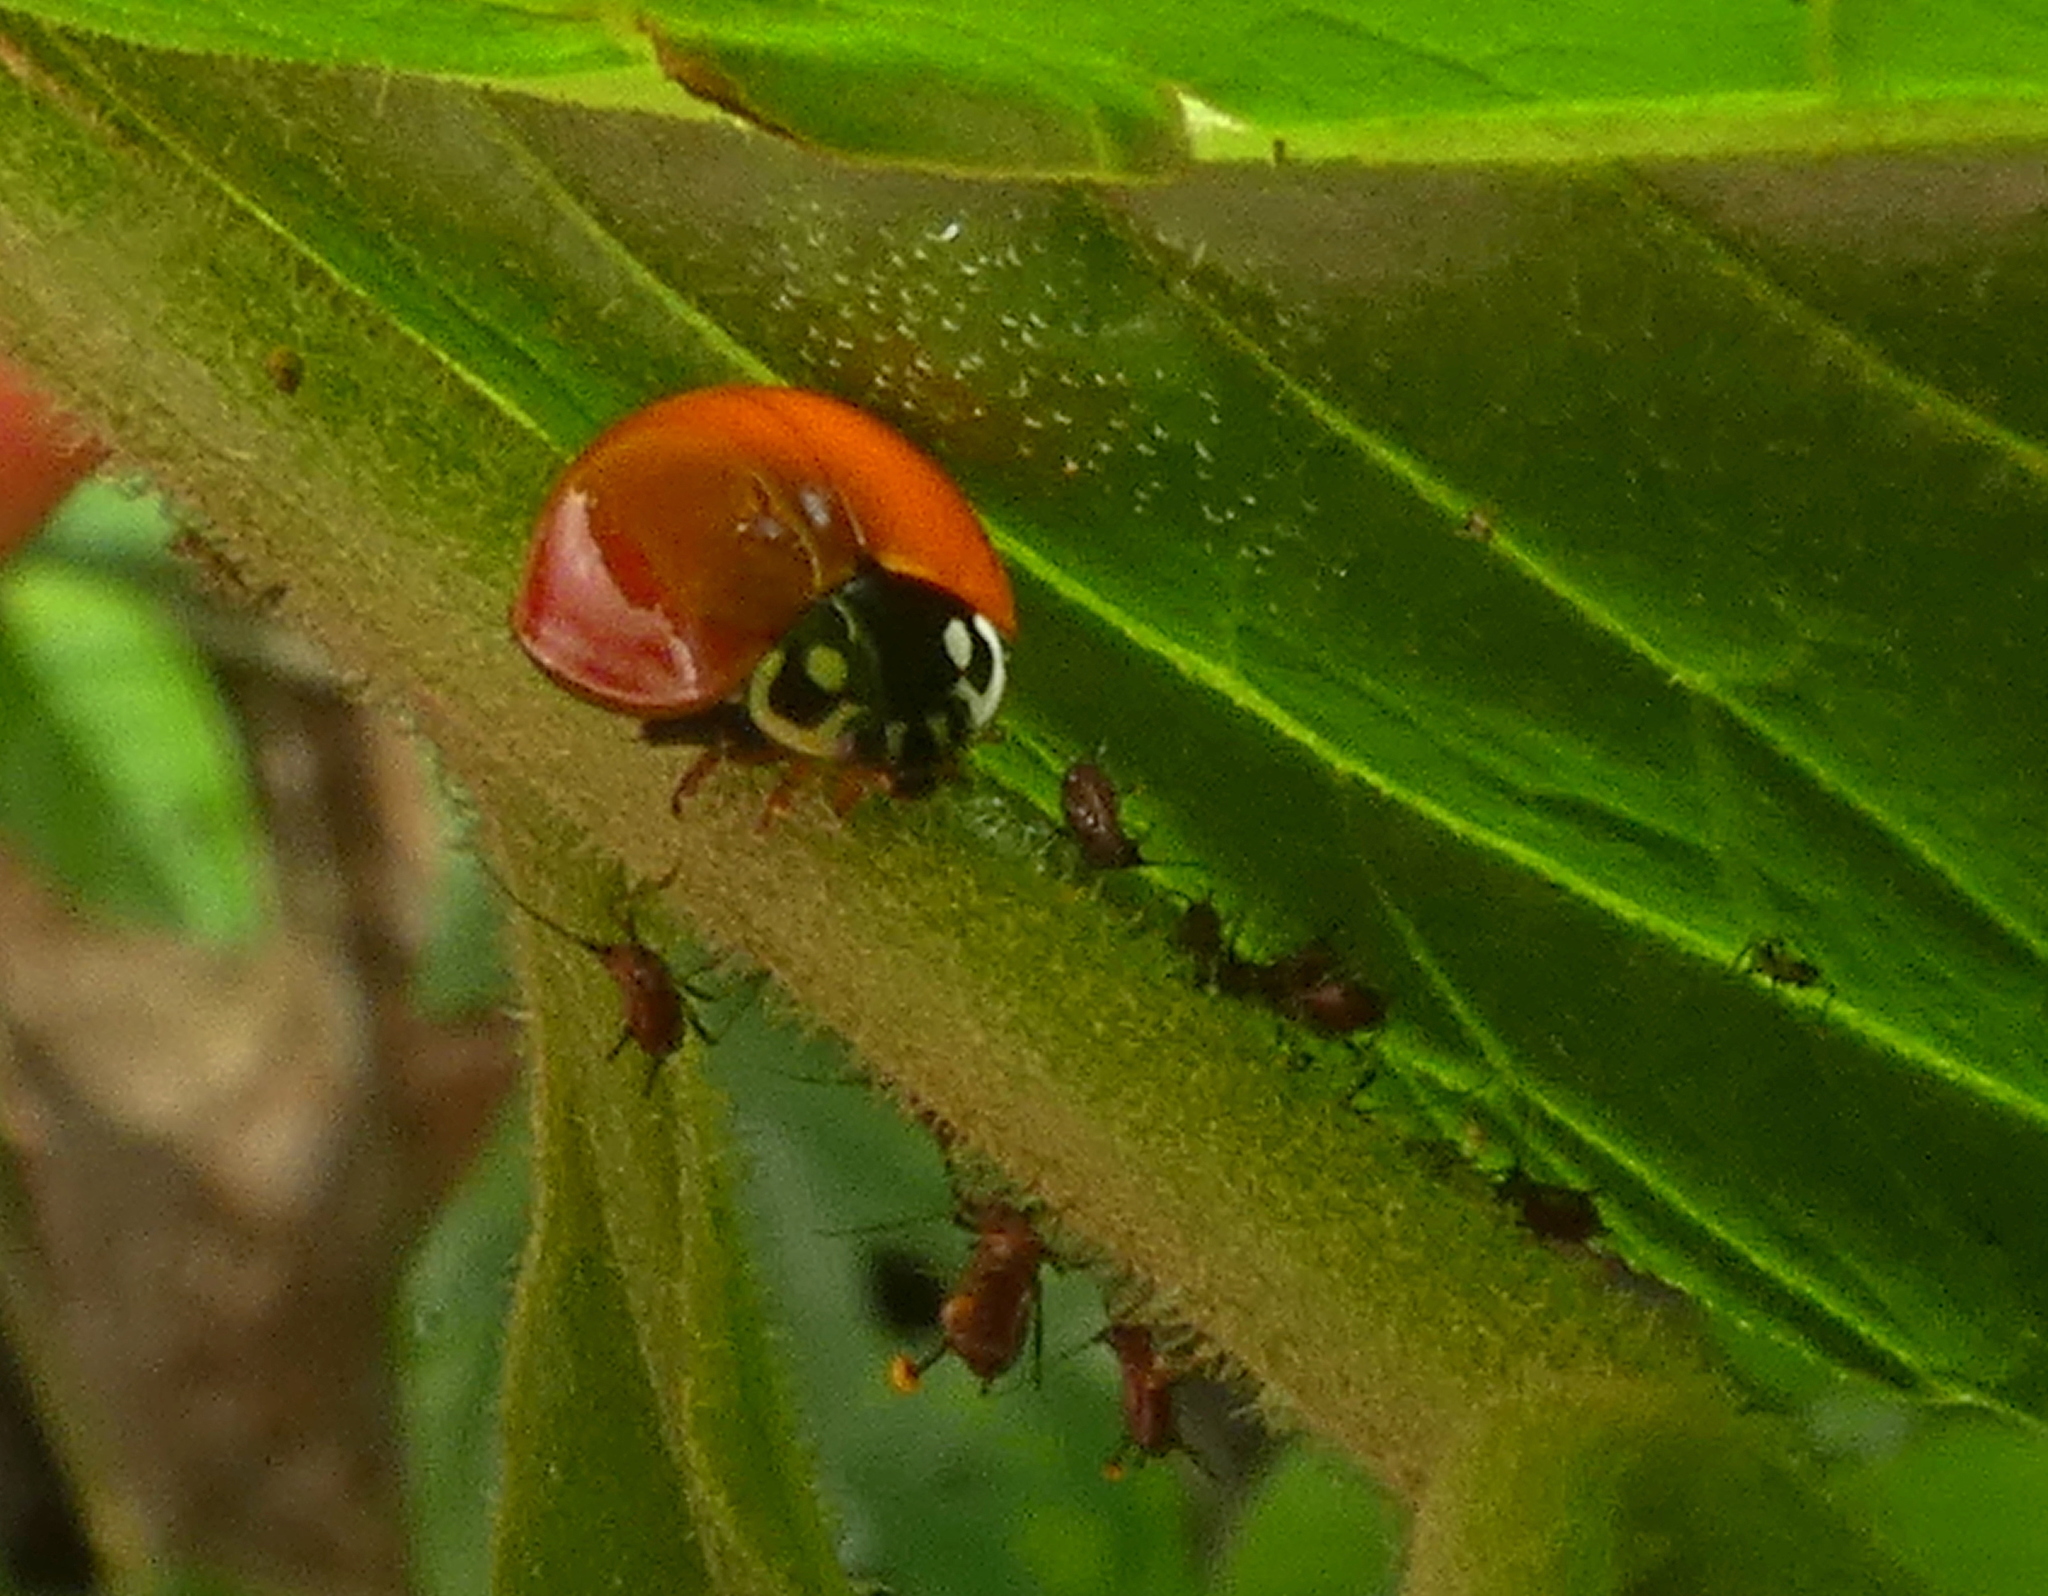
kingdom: Animalia
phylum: Arthropoda
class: Insecta
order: Coleoptera
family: Coccinellidae
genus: Cycloneda
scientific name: Cycloneda sanguinea
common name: Ladybird beetle
